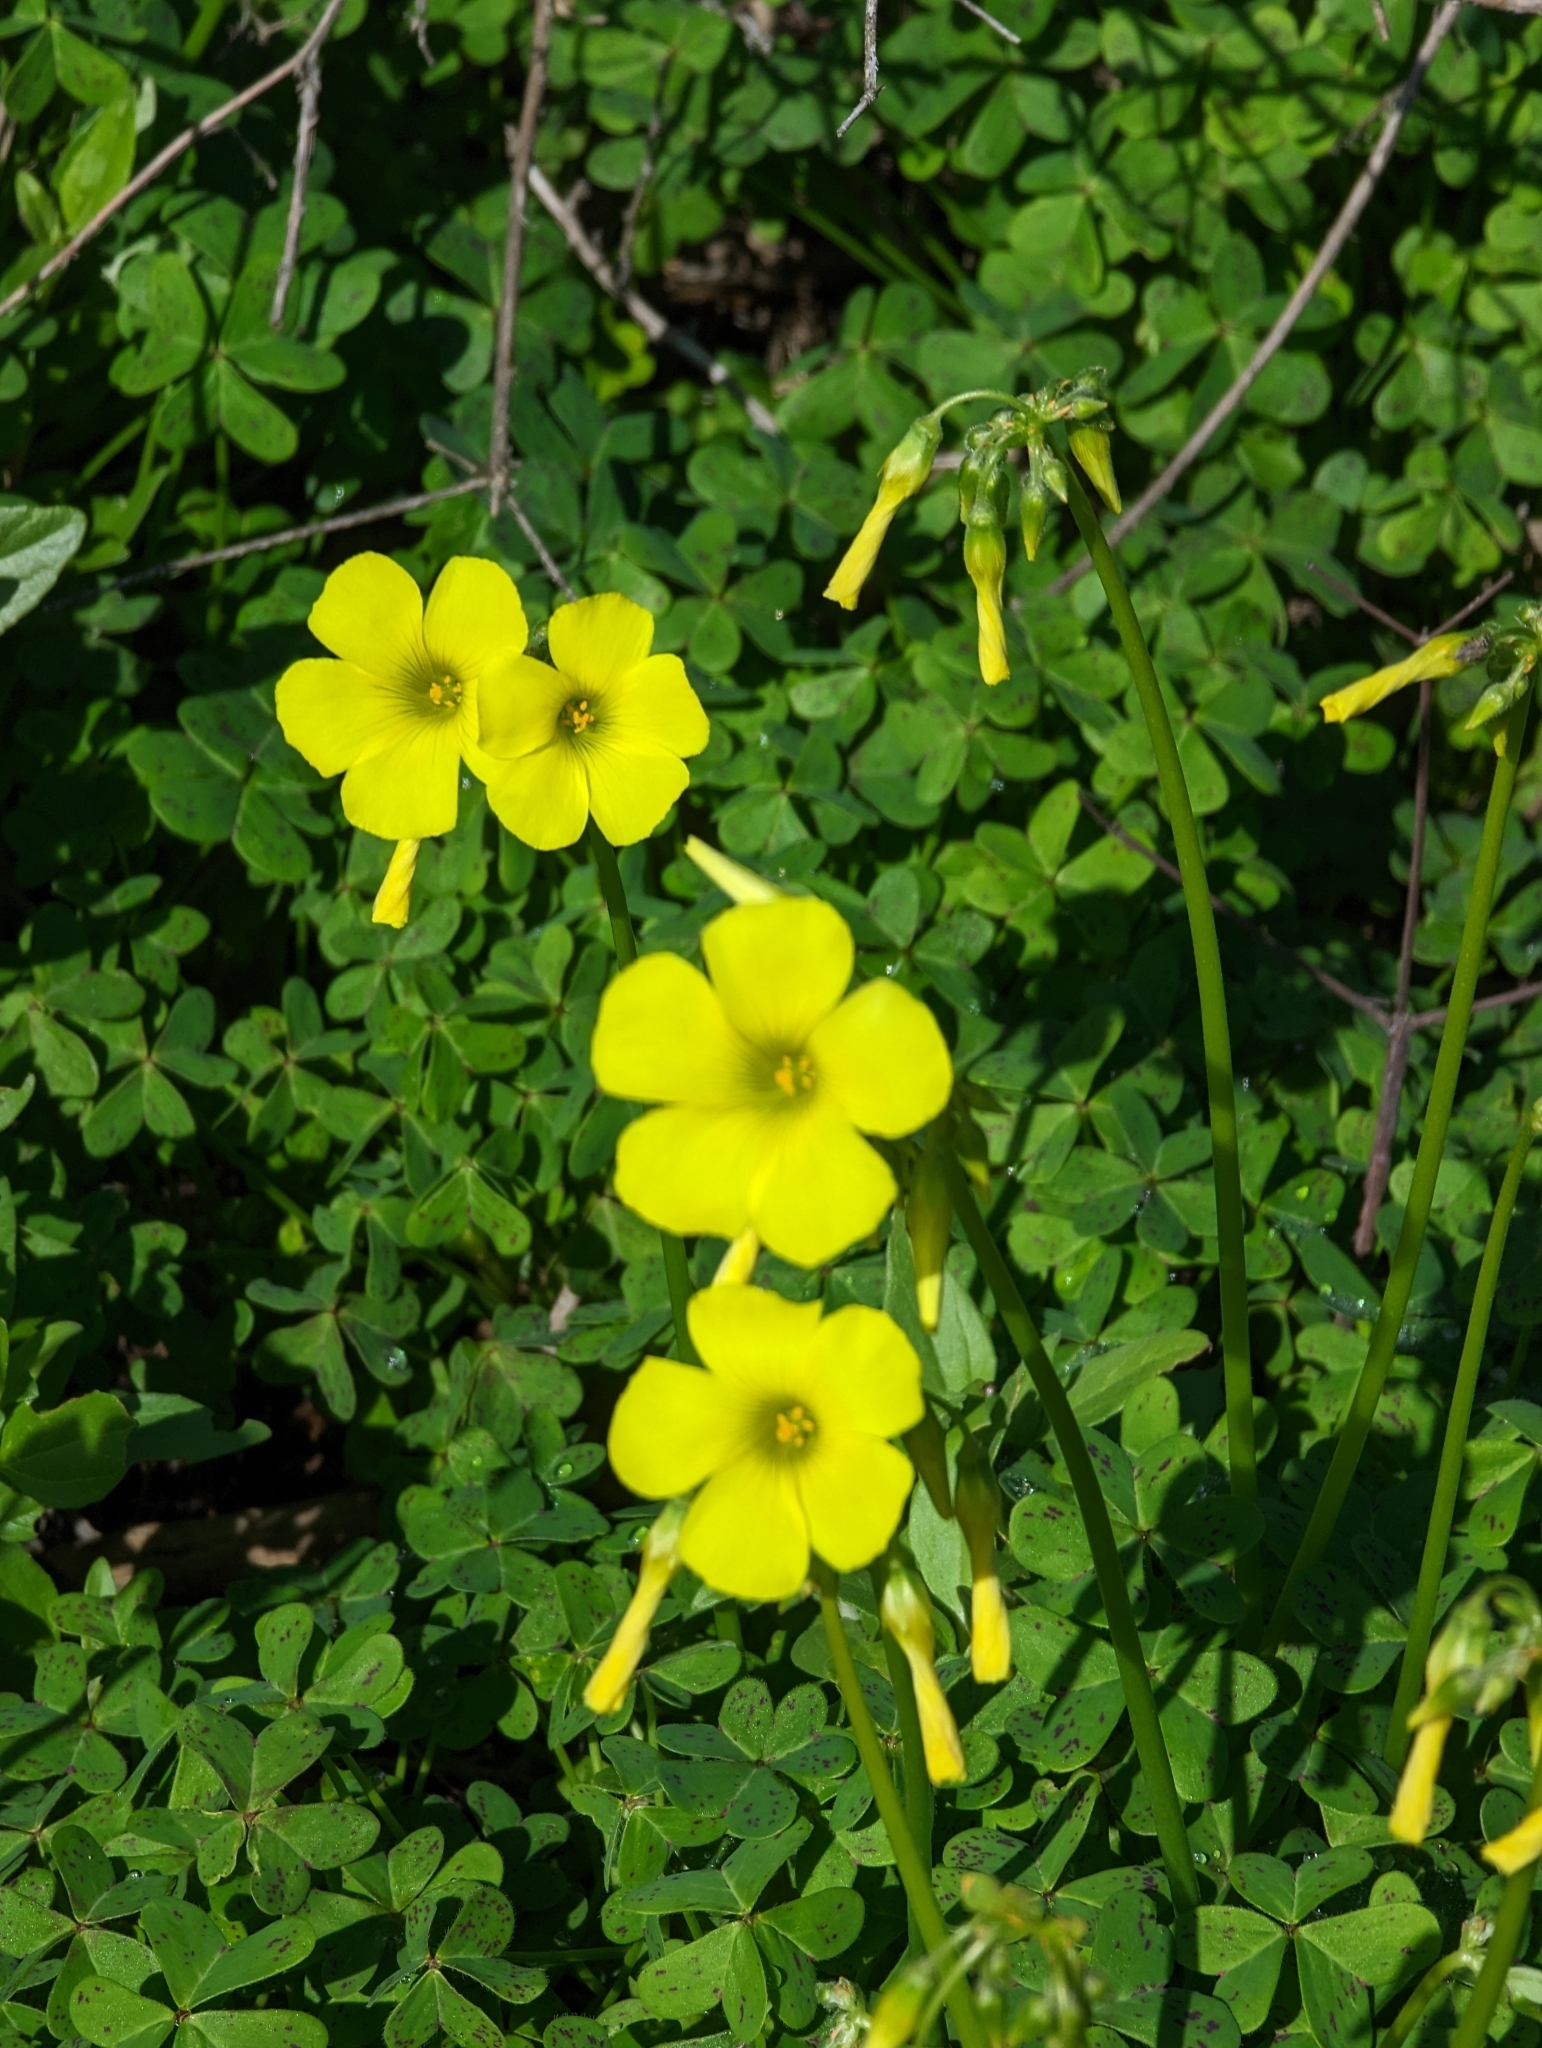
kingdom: Plantae
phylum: Tracheophyta
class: Magnoliopsida
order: Oxalidales
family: Oxalidaceae
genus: Oxalis
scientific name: Oxalis pes-caprae
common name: Bermuda-buttercup
